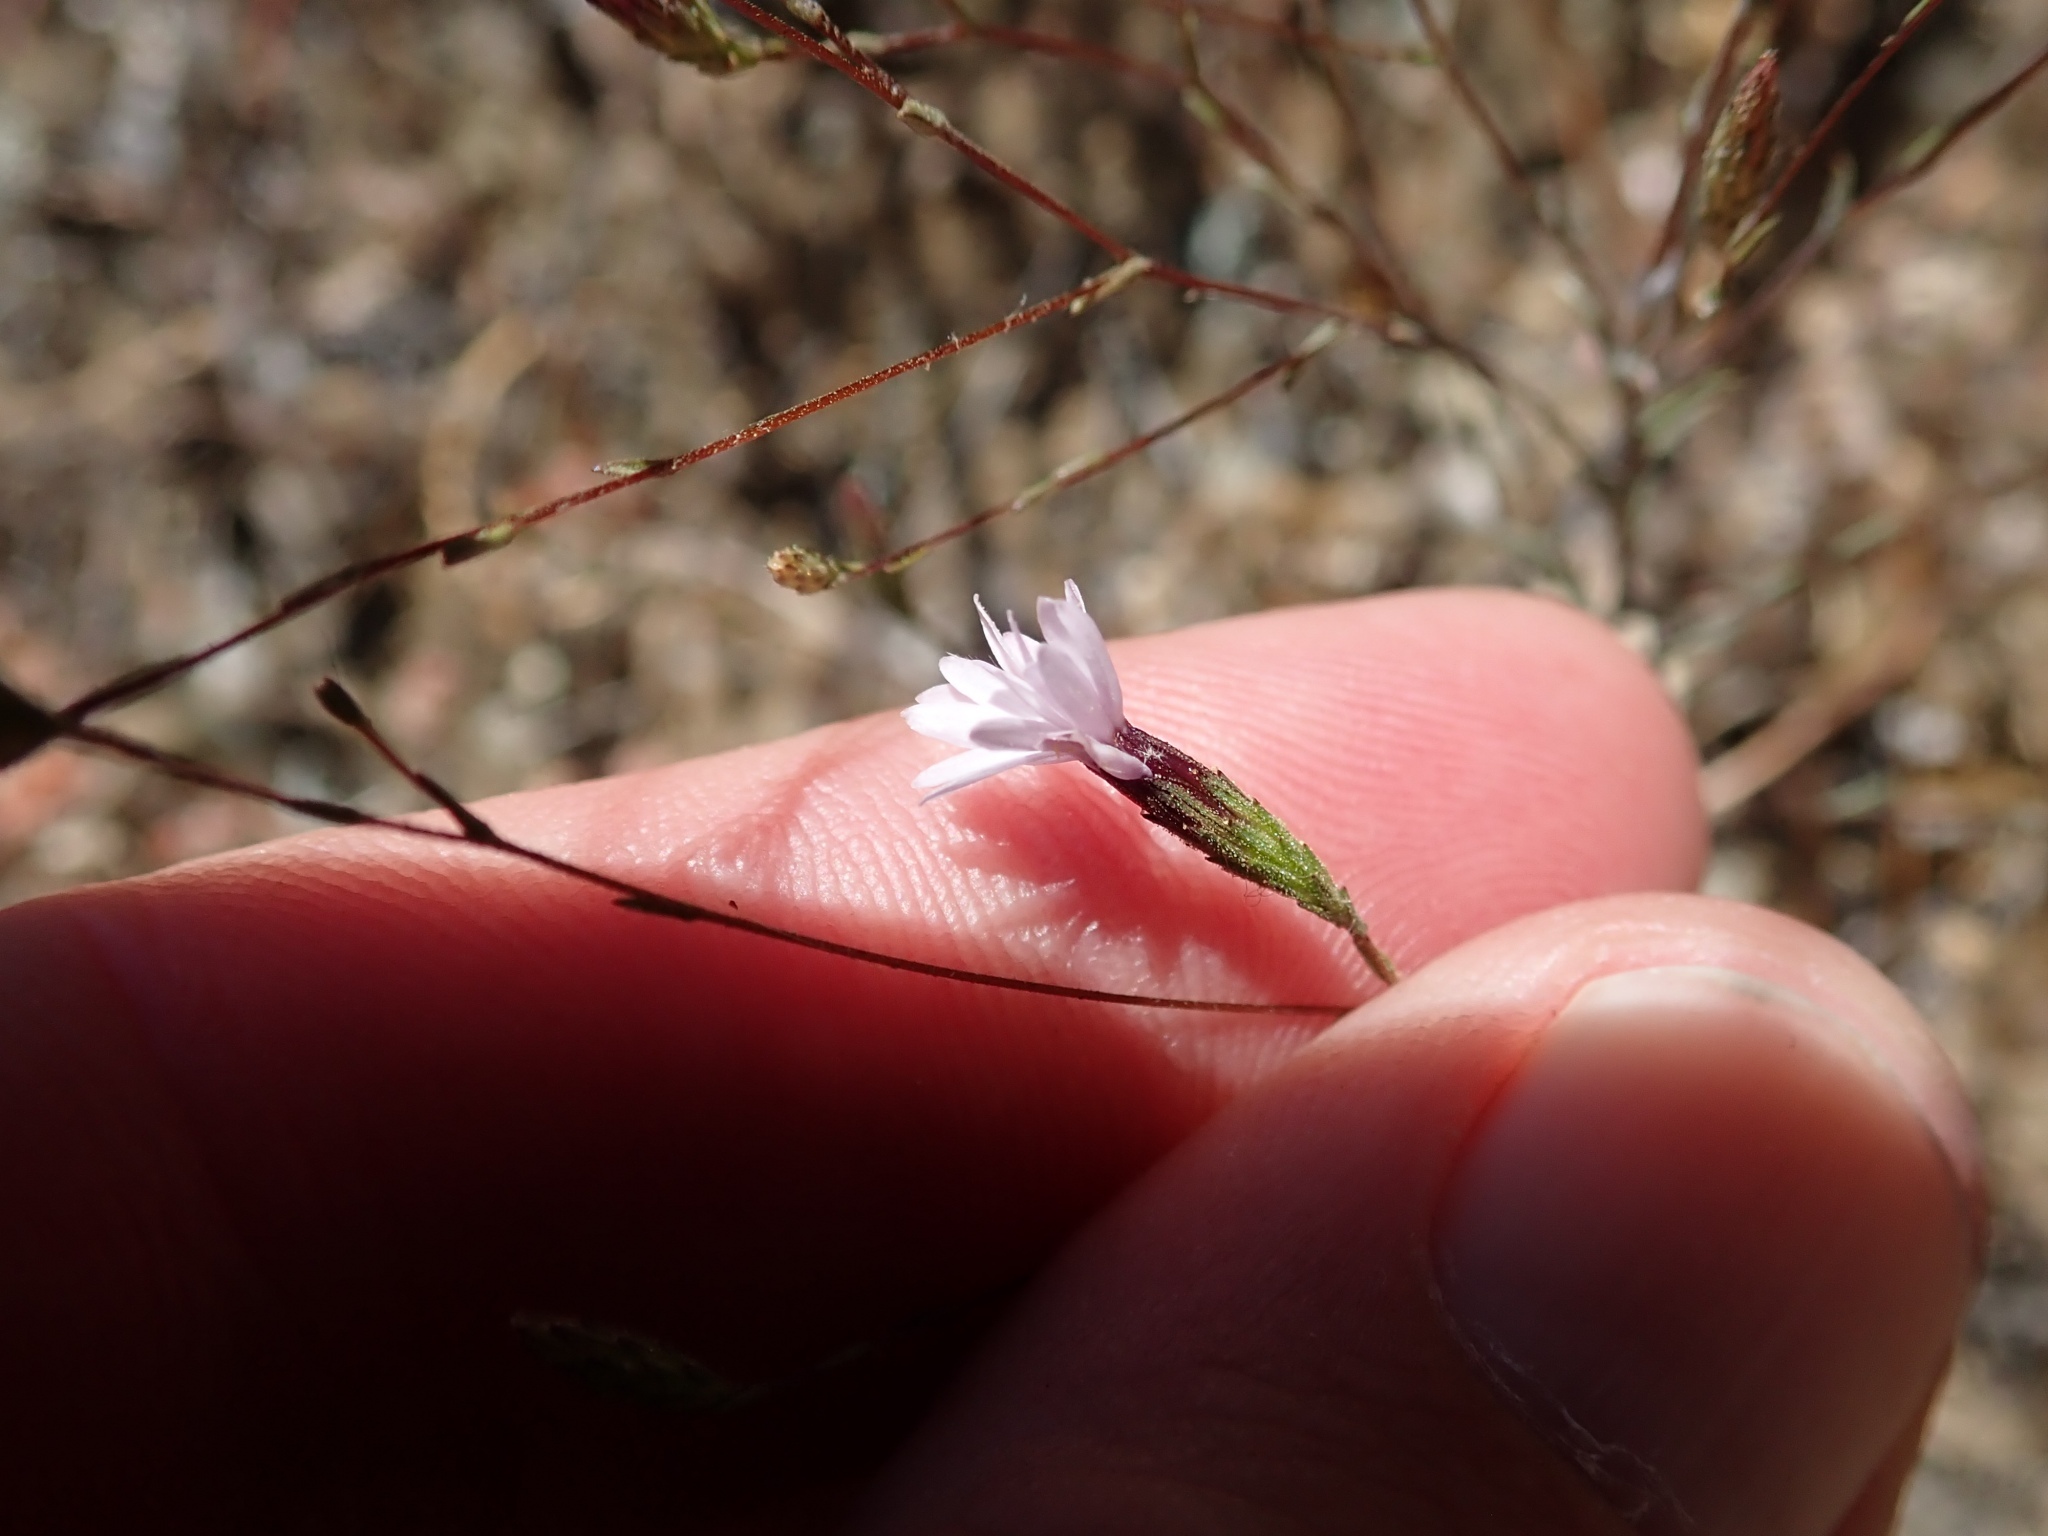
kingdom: Plantae
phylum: Tracheophyta
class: Magnoliopsida
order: Asterales
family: Asteraceae
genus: Lessingia
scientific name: Lessingia micradenia
